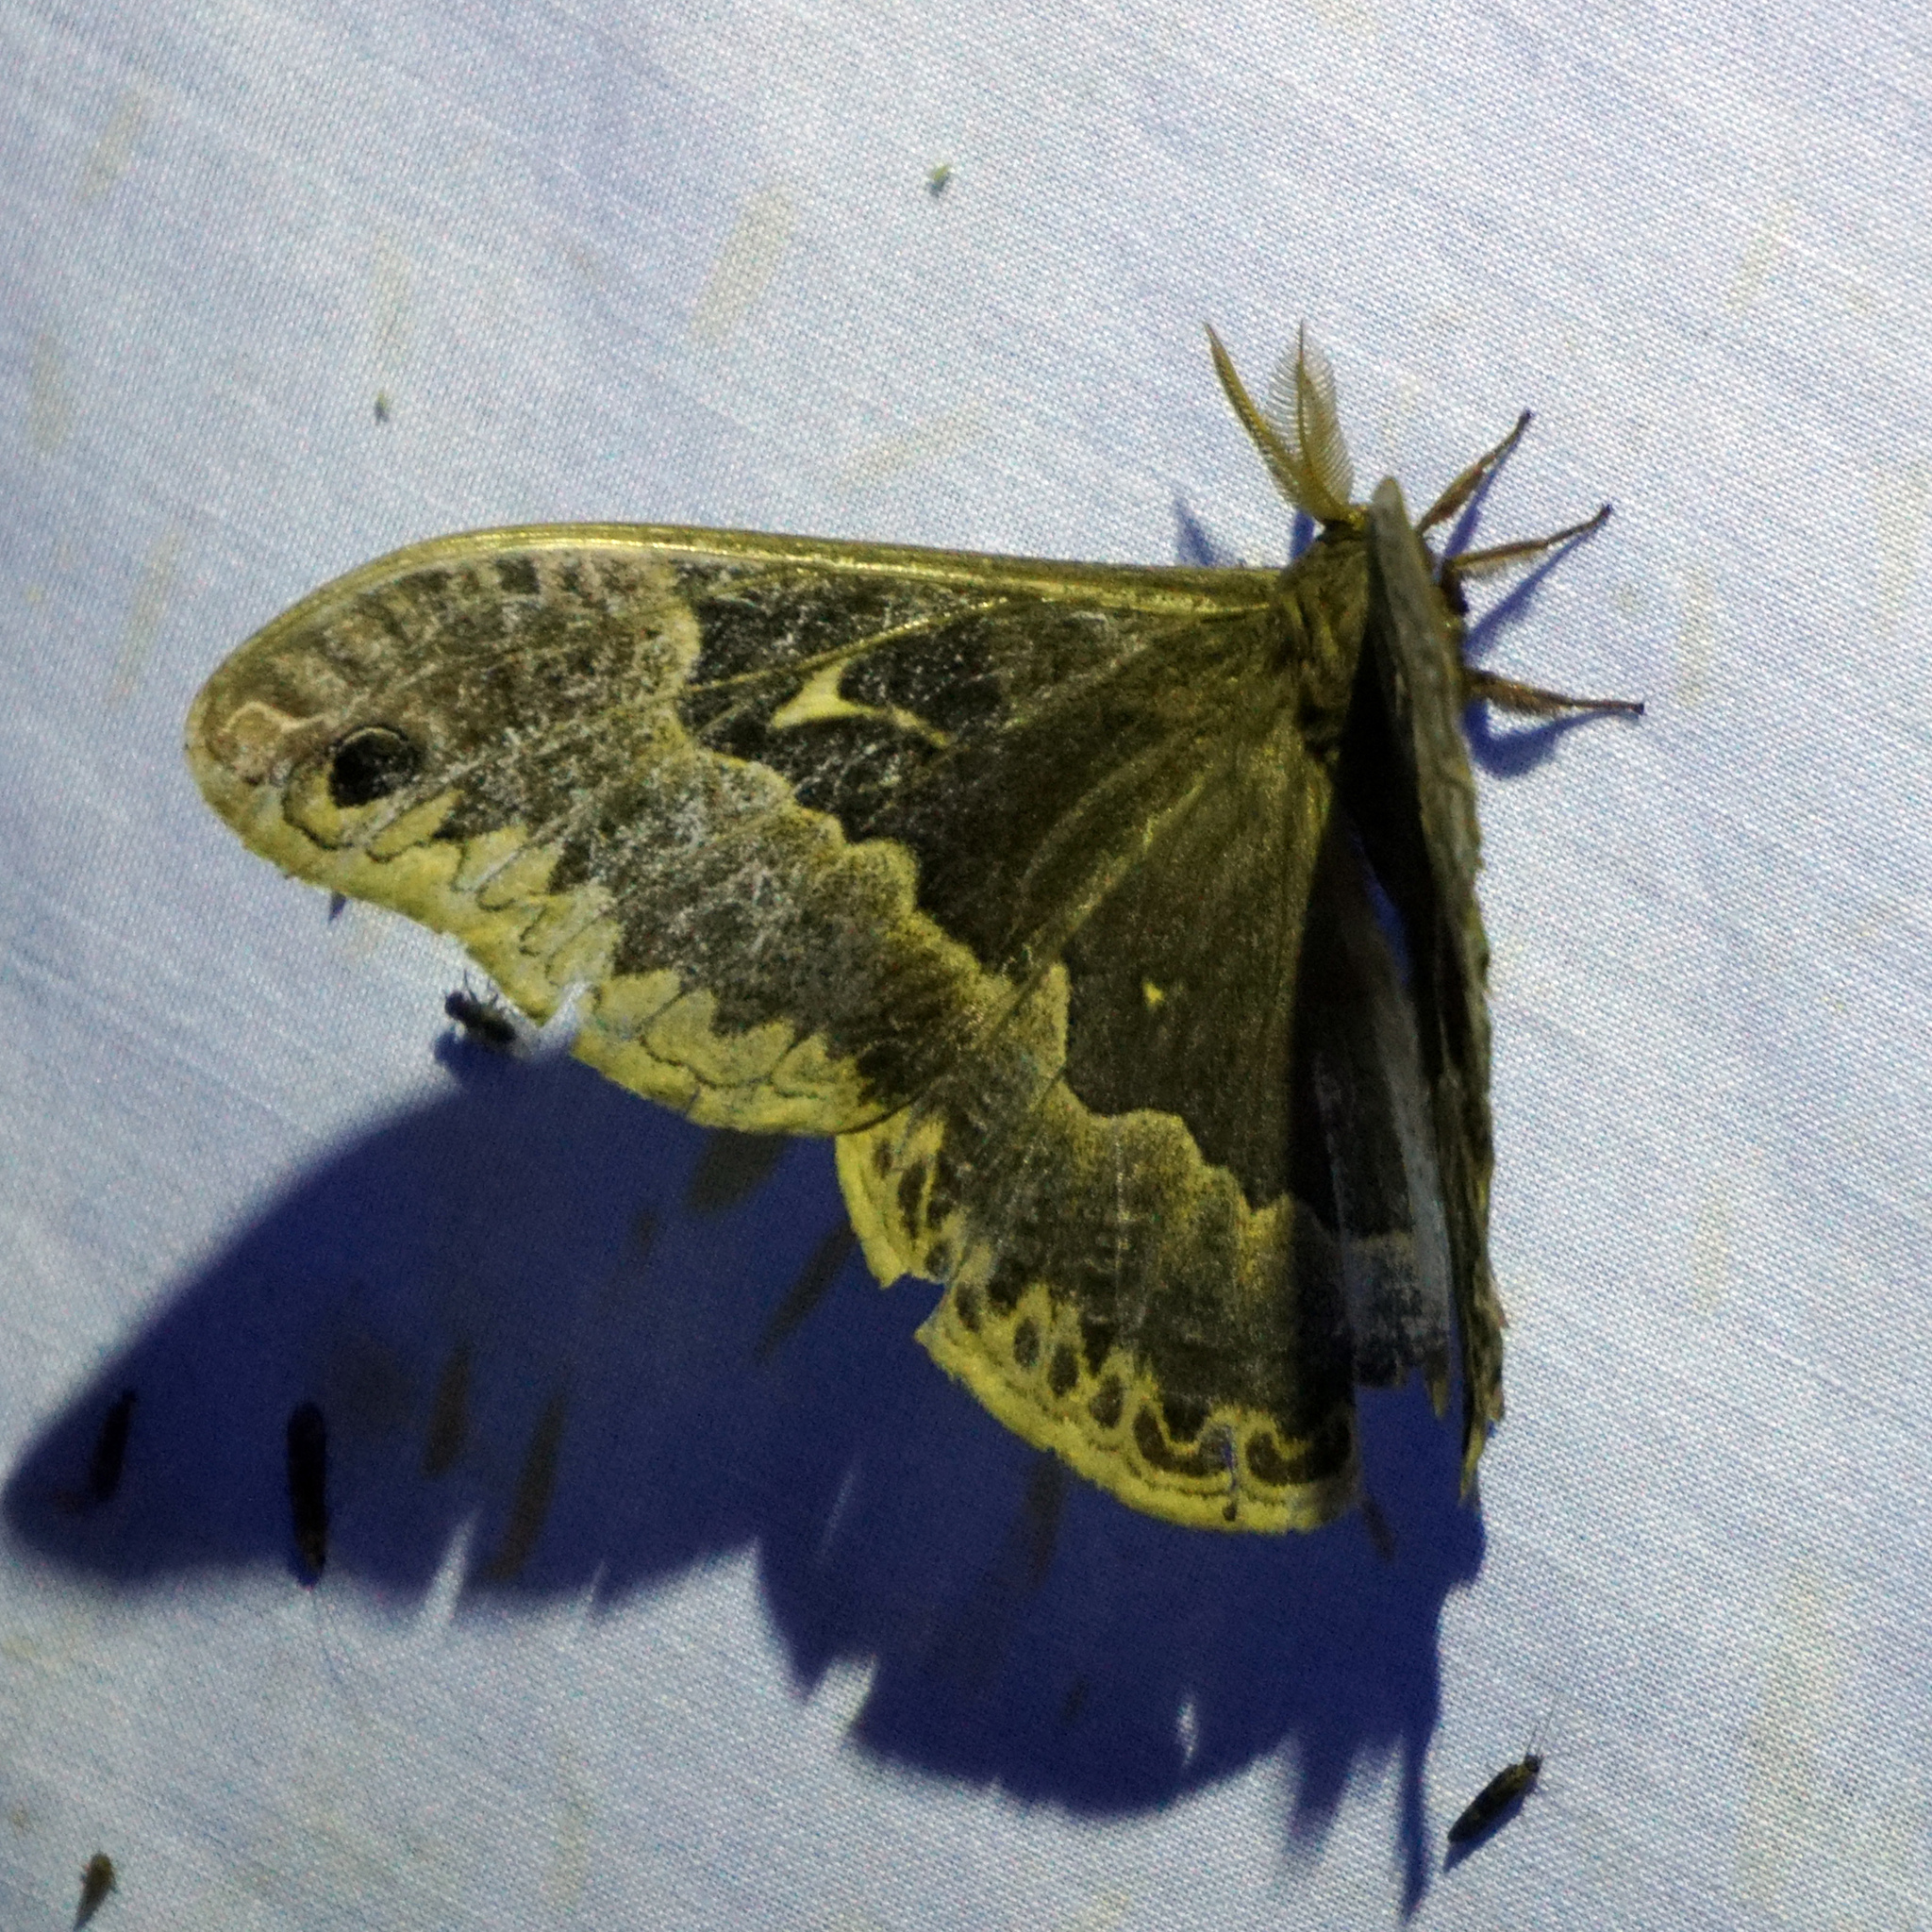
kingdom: Animalia
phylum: Arthropoda
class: Insecta
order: Lepidoptera
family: Saturniidae
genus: Callosamia
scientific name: Callosamia angulifera
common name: Tulip tree silkmoth
